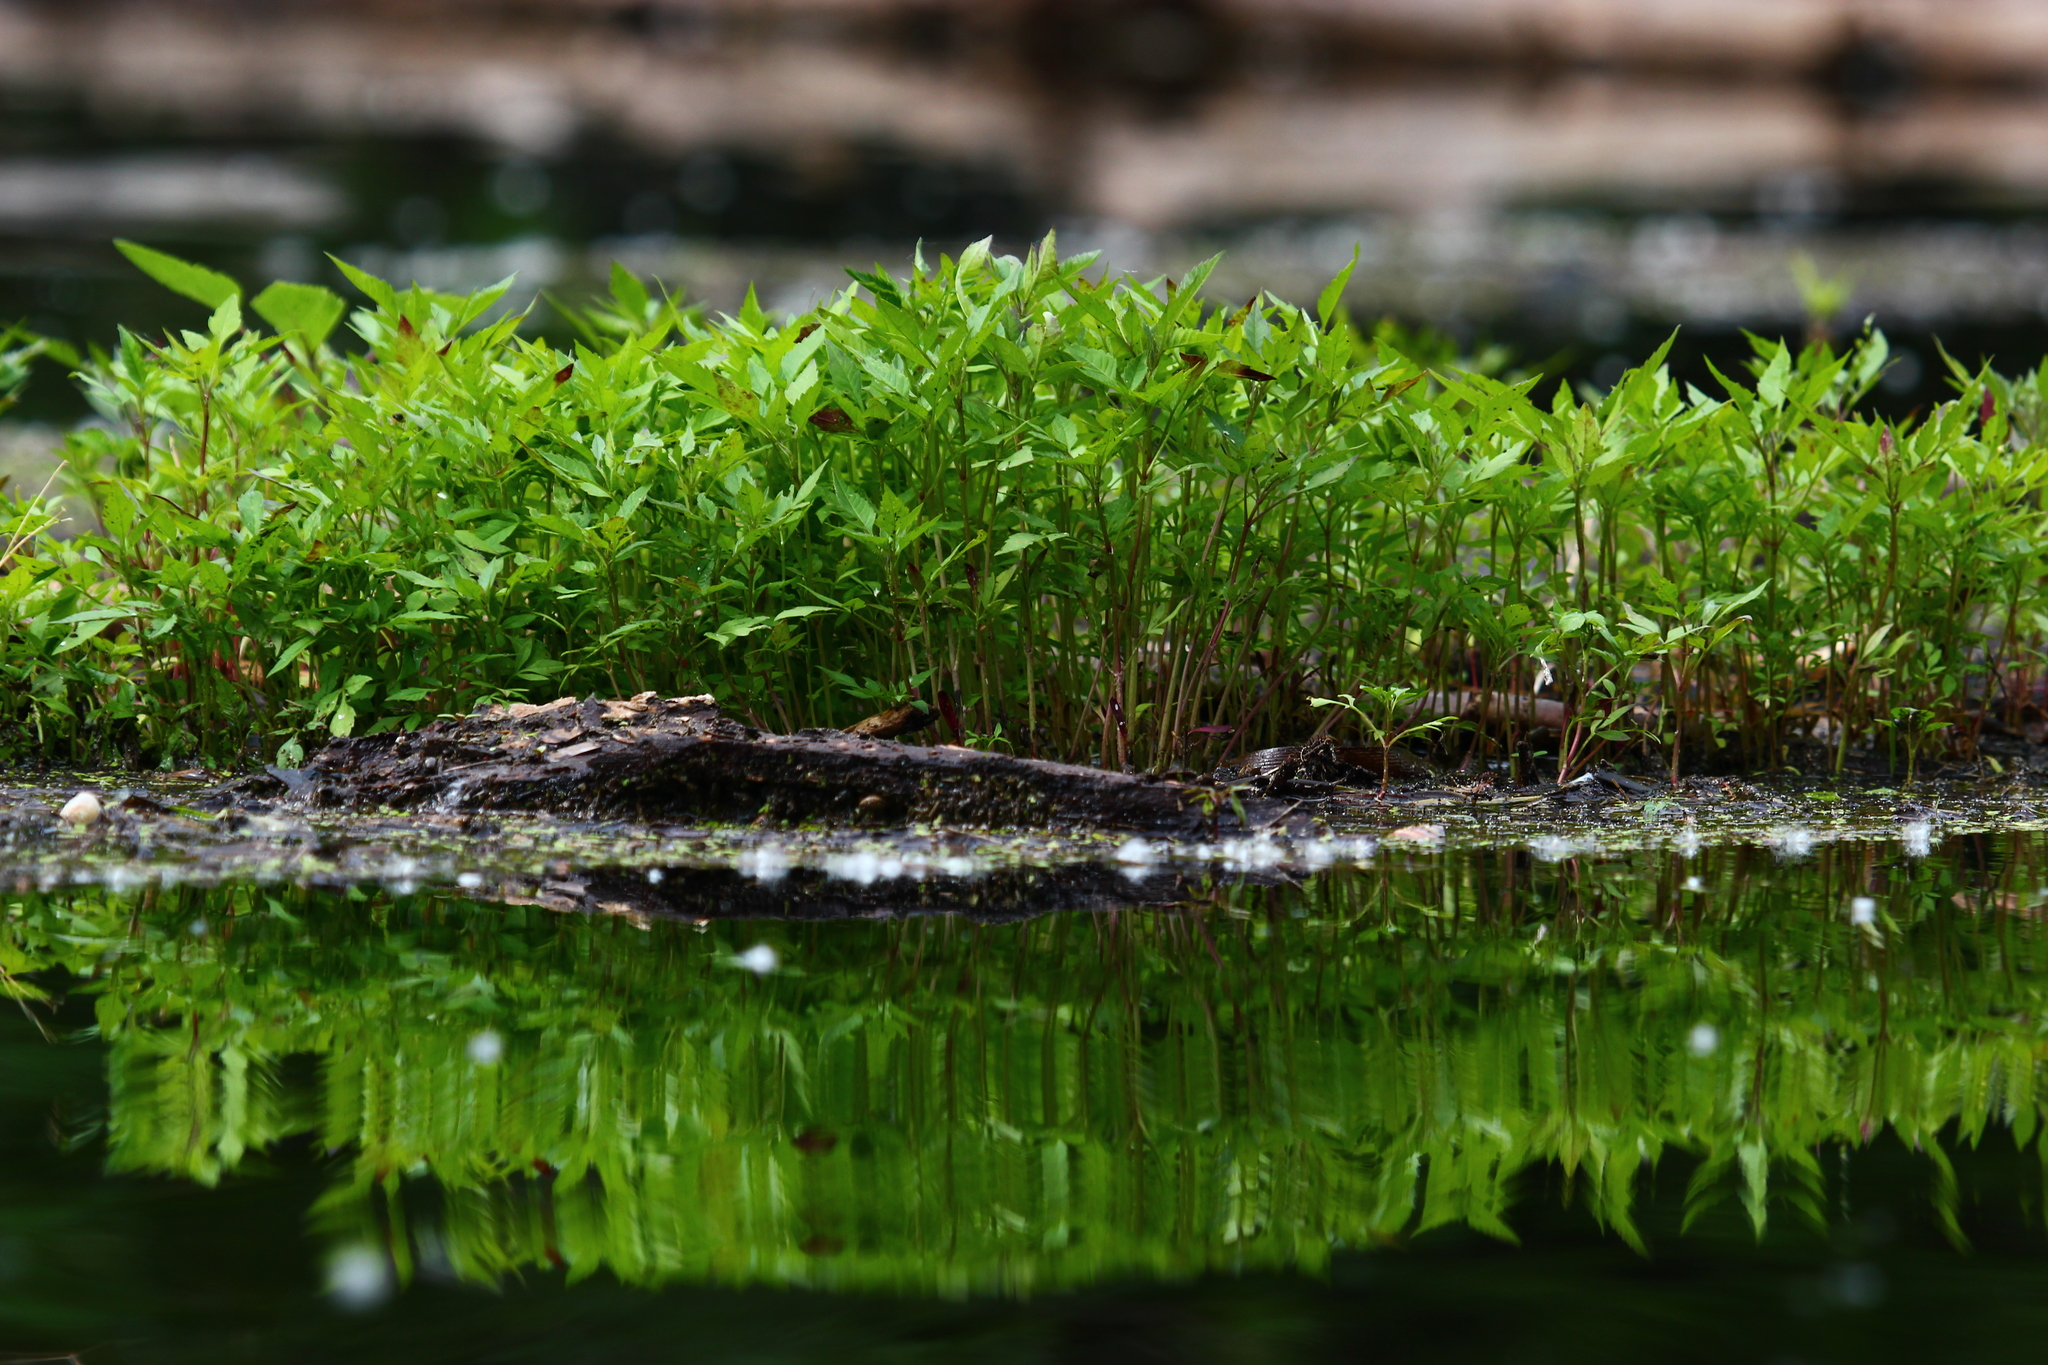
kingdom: Plantae
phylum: Tracheophyta
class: Magnoliopsida
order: Asterales
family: Asteraceae
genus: Bidens
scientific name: Bidens frondosa
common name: Beggarticks
